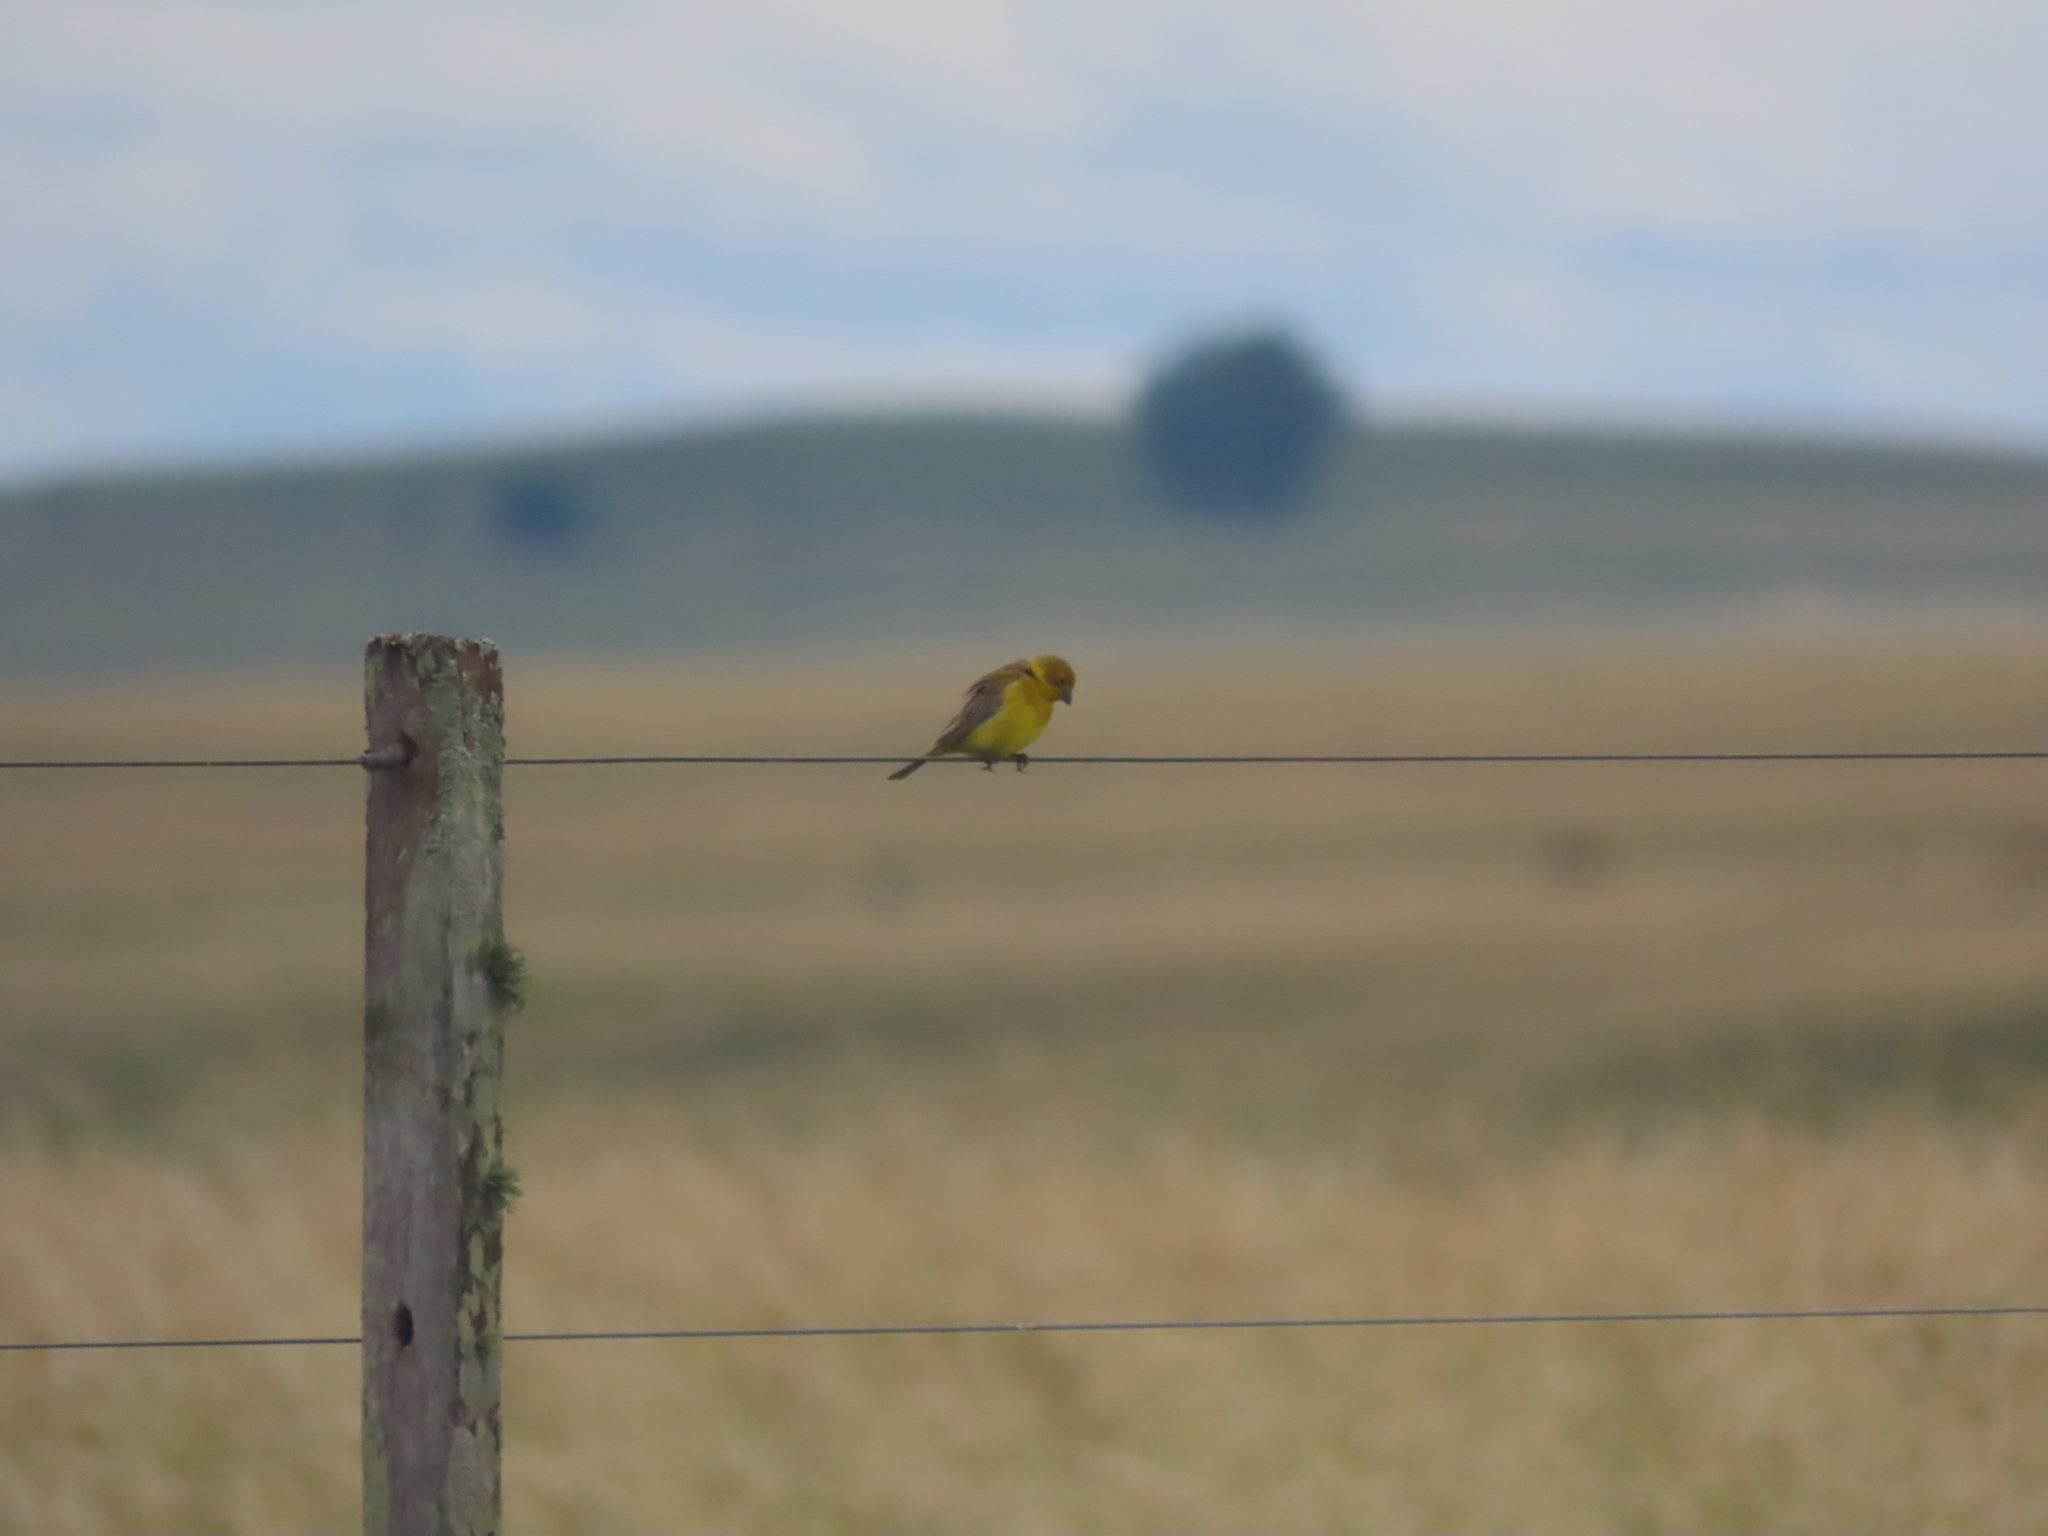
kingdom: Animalia
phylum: Chordata
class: Aves
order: Passeriformes
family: Thraupidae
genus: Sicalis
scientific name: Sicalis luteola
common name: Grassland yellow-finch
